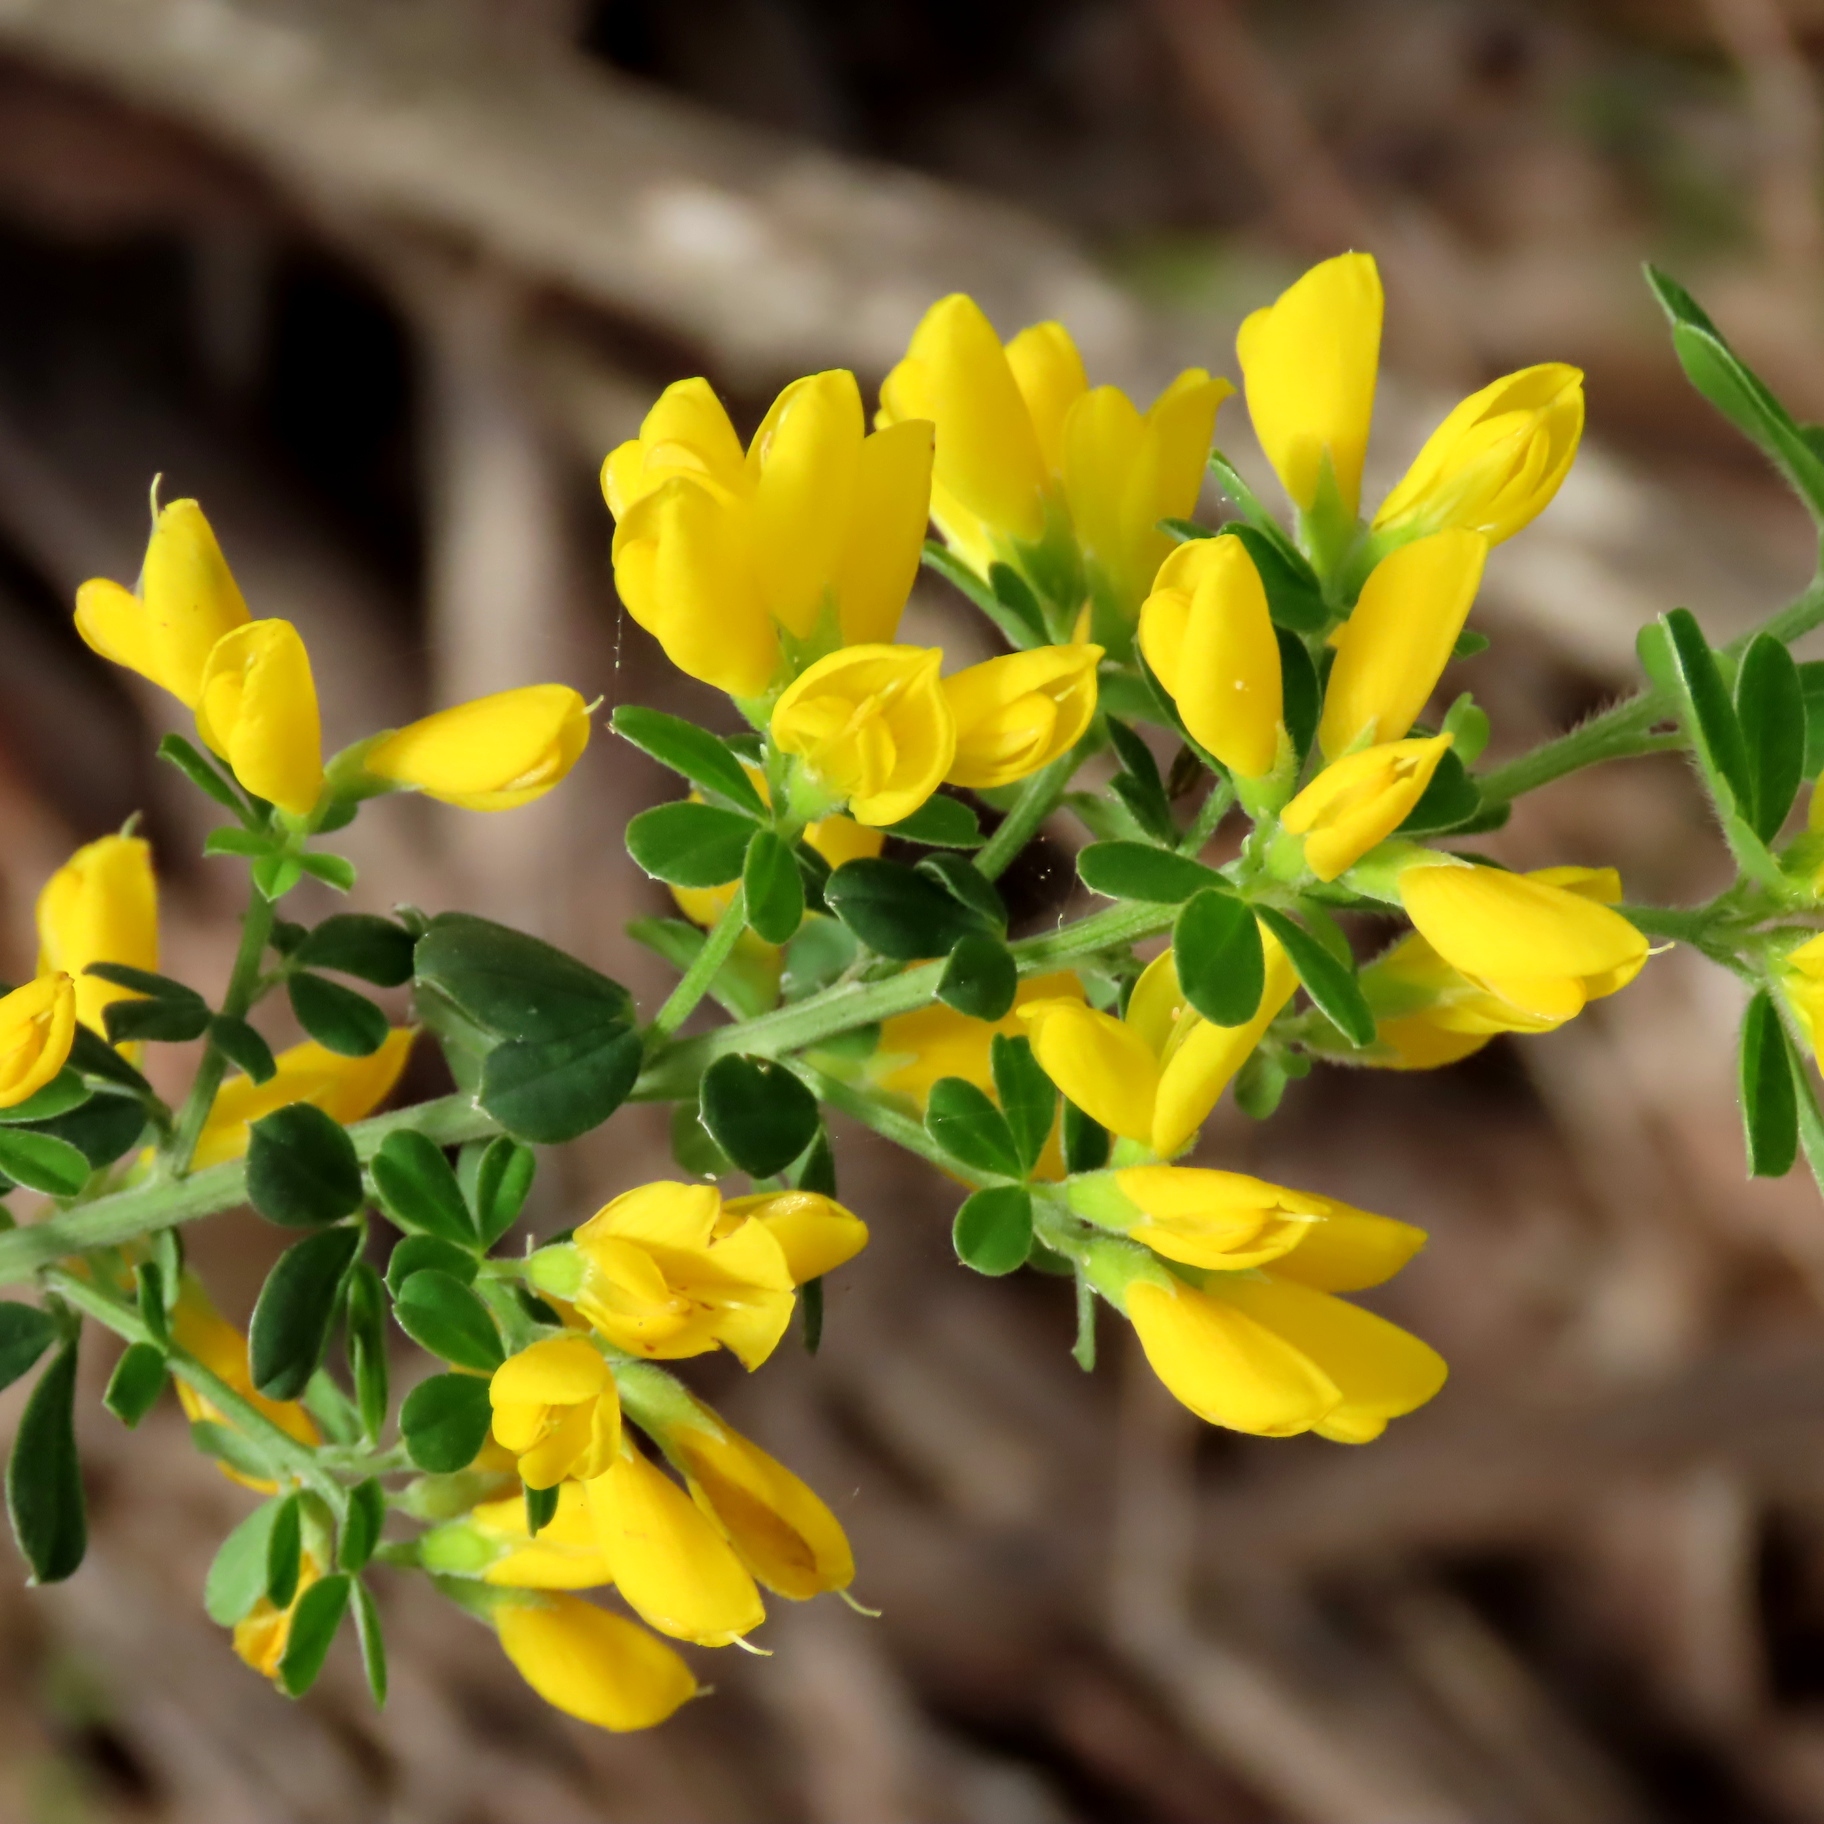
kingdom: Plantae
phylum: Tracheophyta
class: Magnoliopsida
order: Fabales
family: Fabaceae
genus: Genista
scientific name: Genista monspessulana
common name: Montpellier broom
